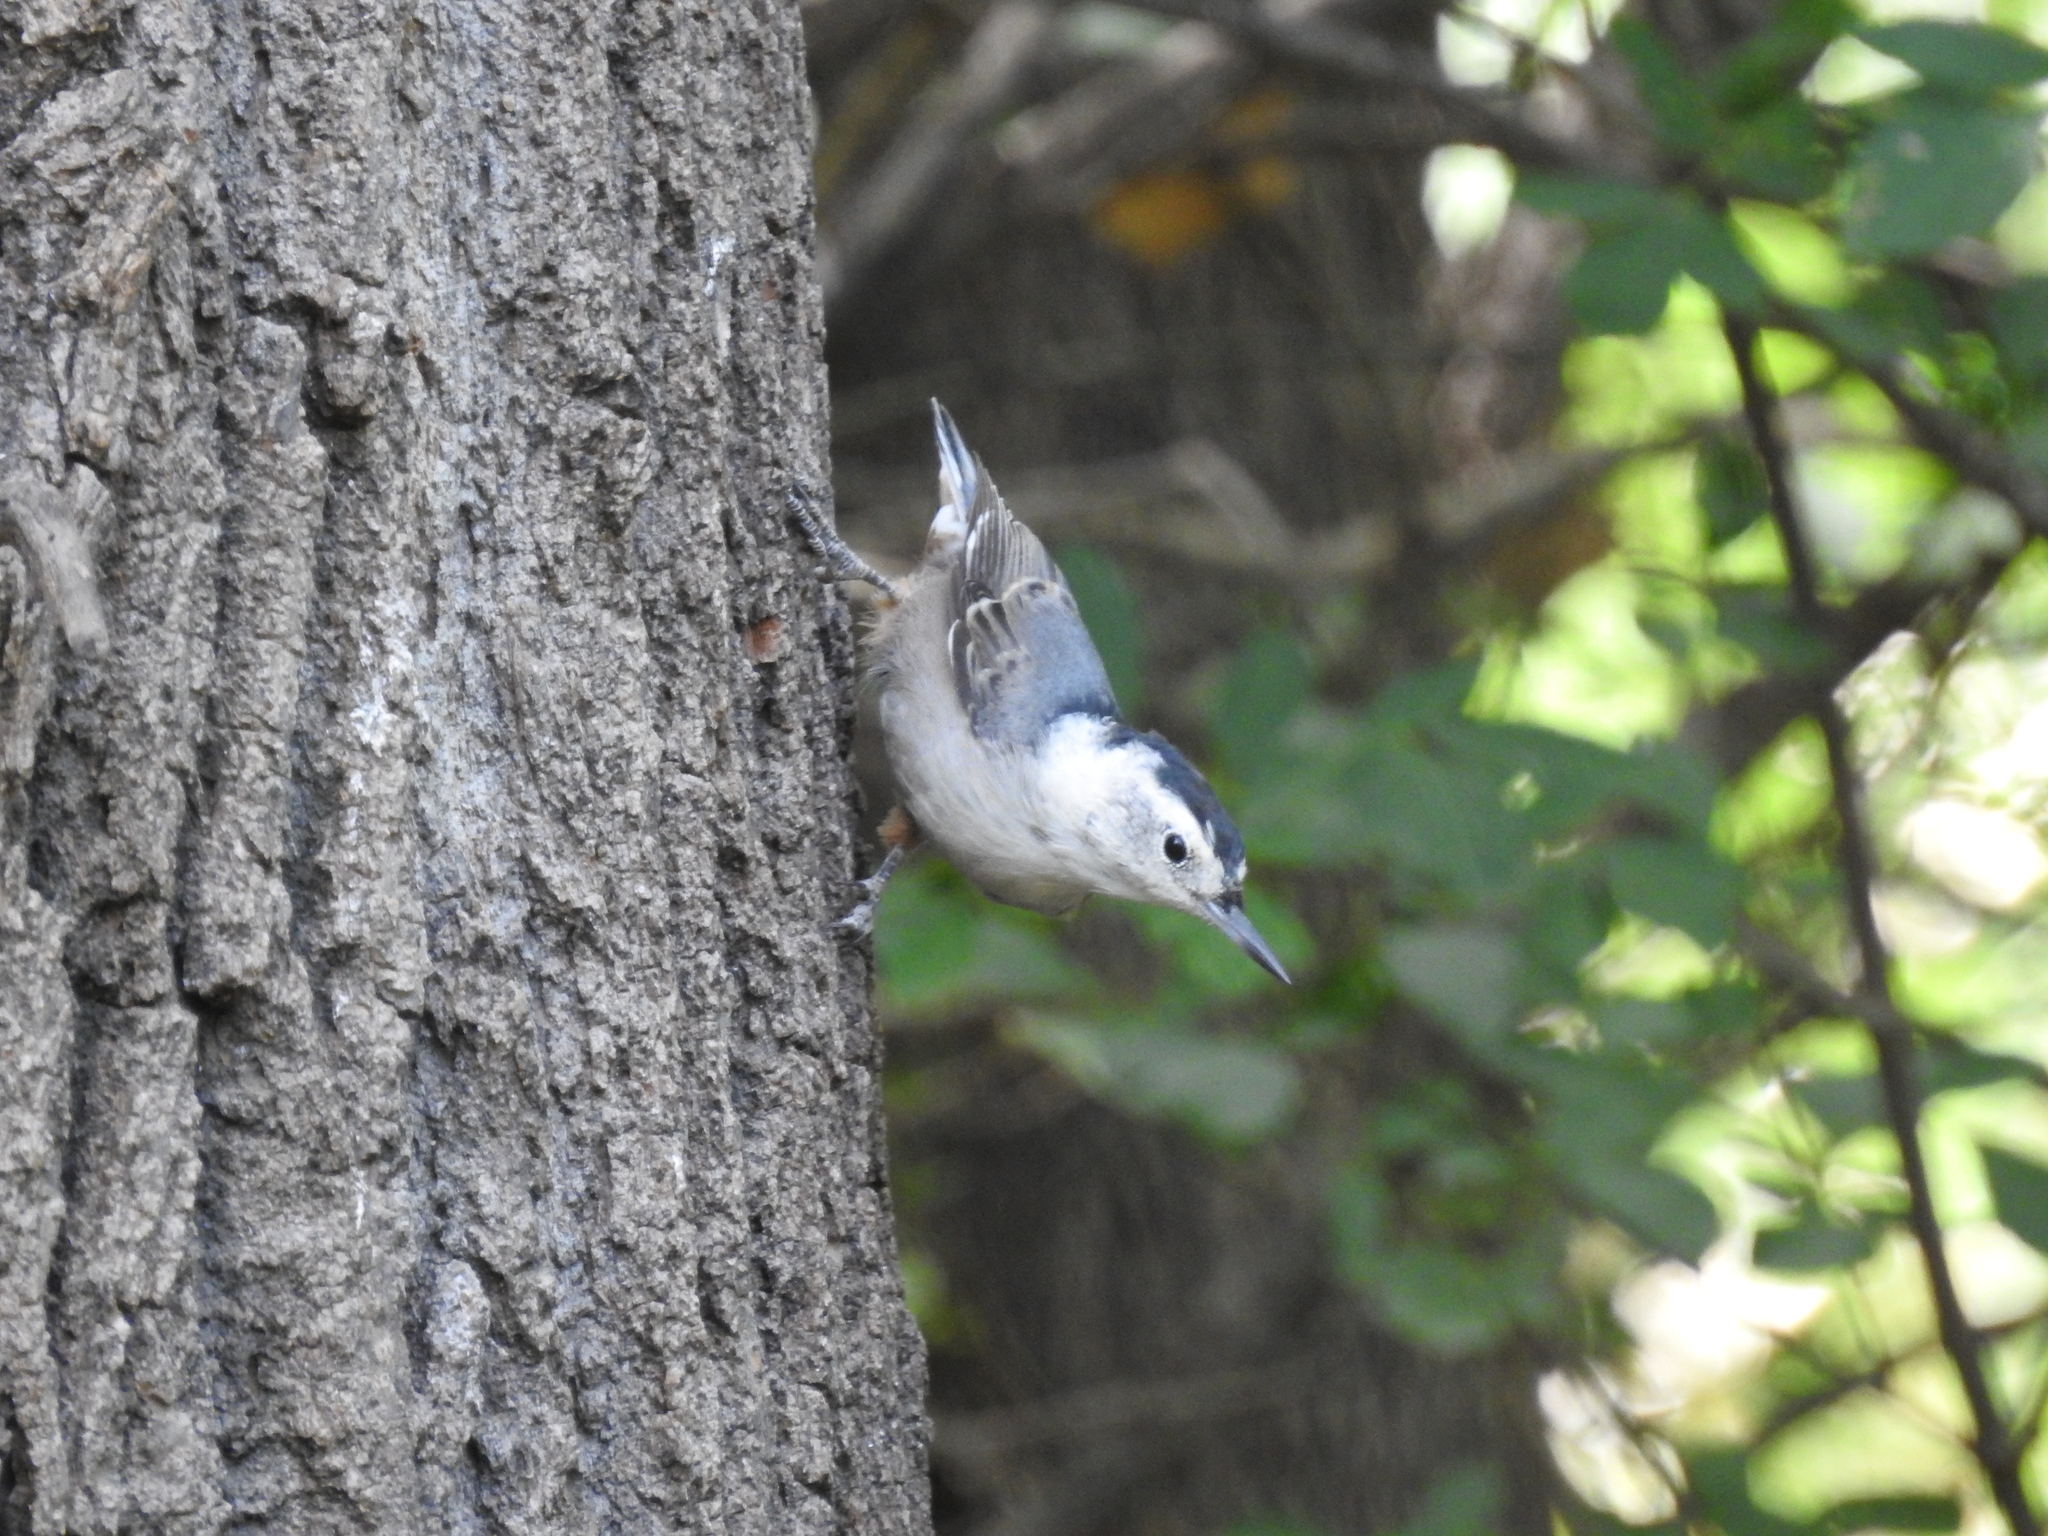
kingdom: Animalia
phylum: Chordata
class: Aves
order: Passeriformes
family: Sittidae
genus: Sitta
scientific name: Sitta carolinensis
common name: White-breasted nuthatch
